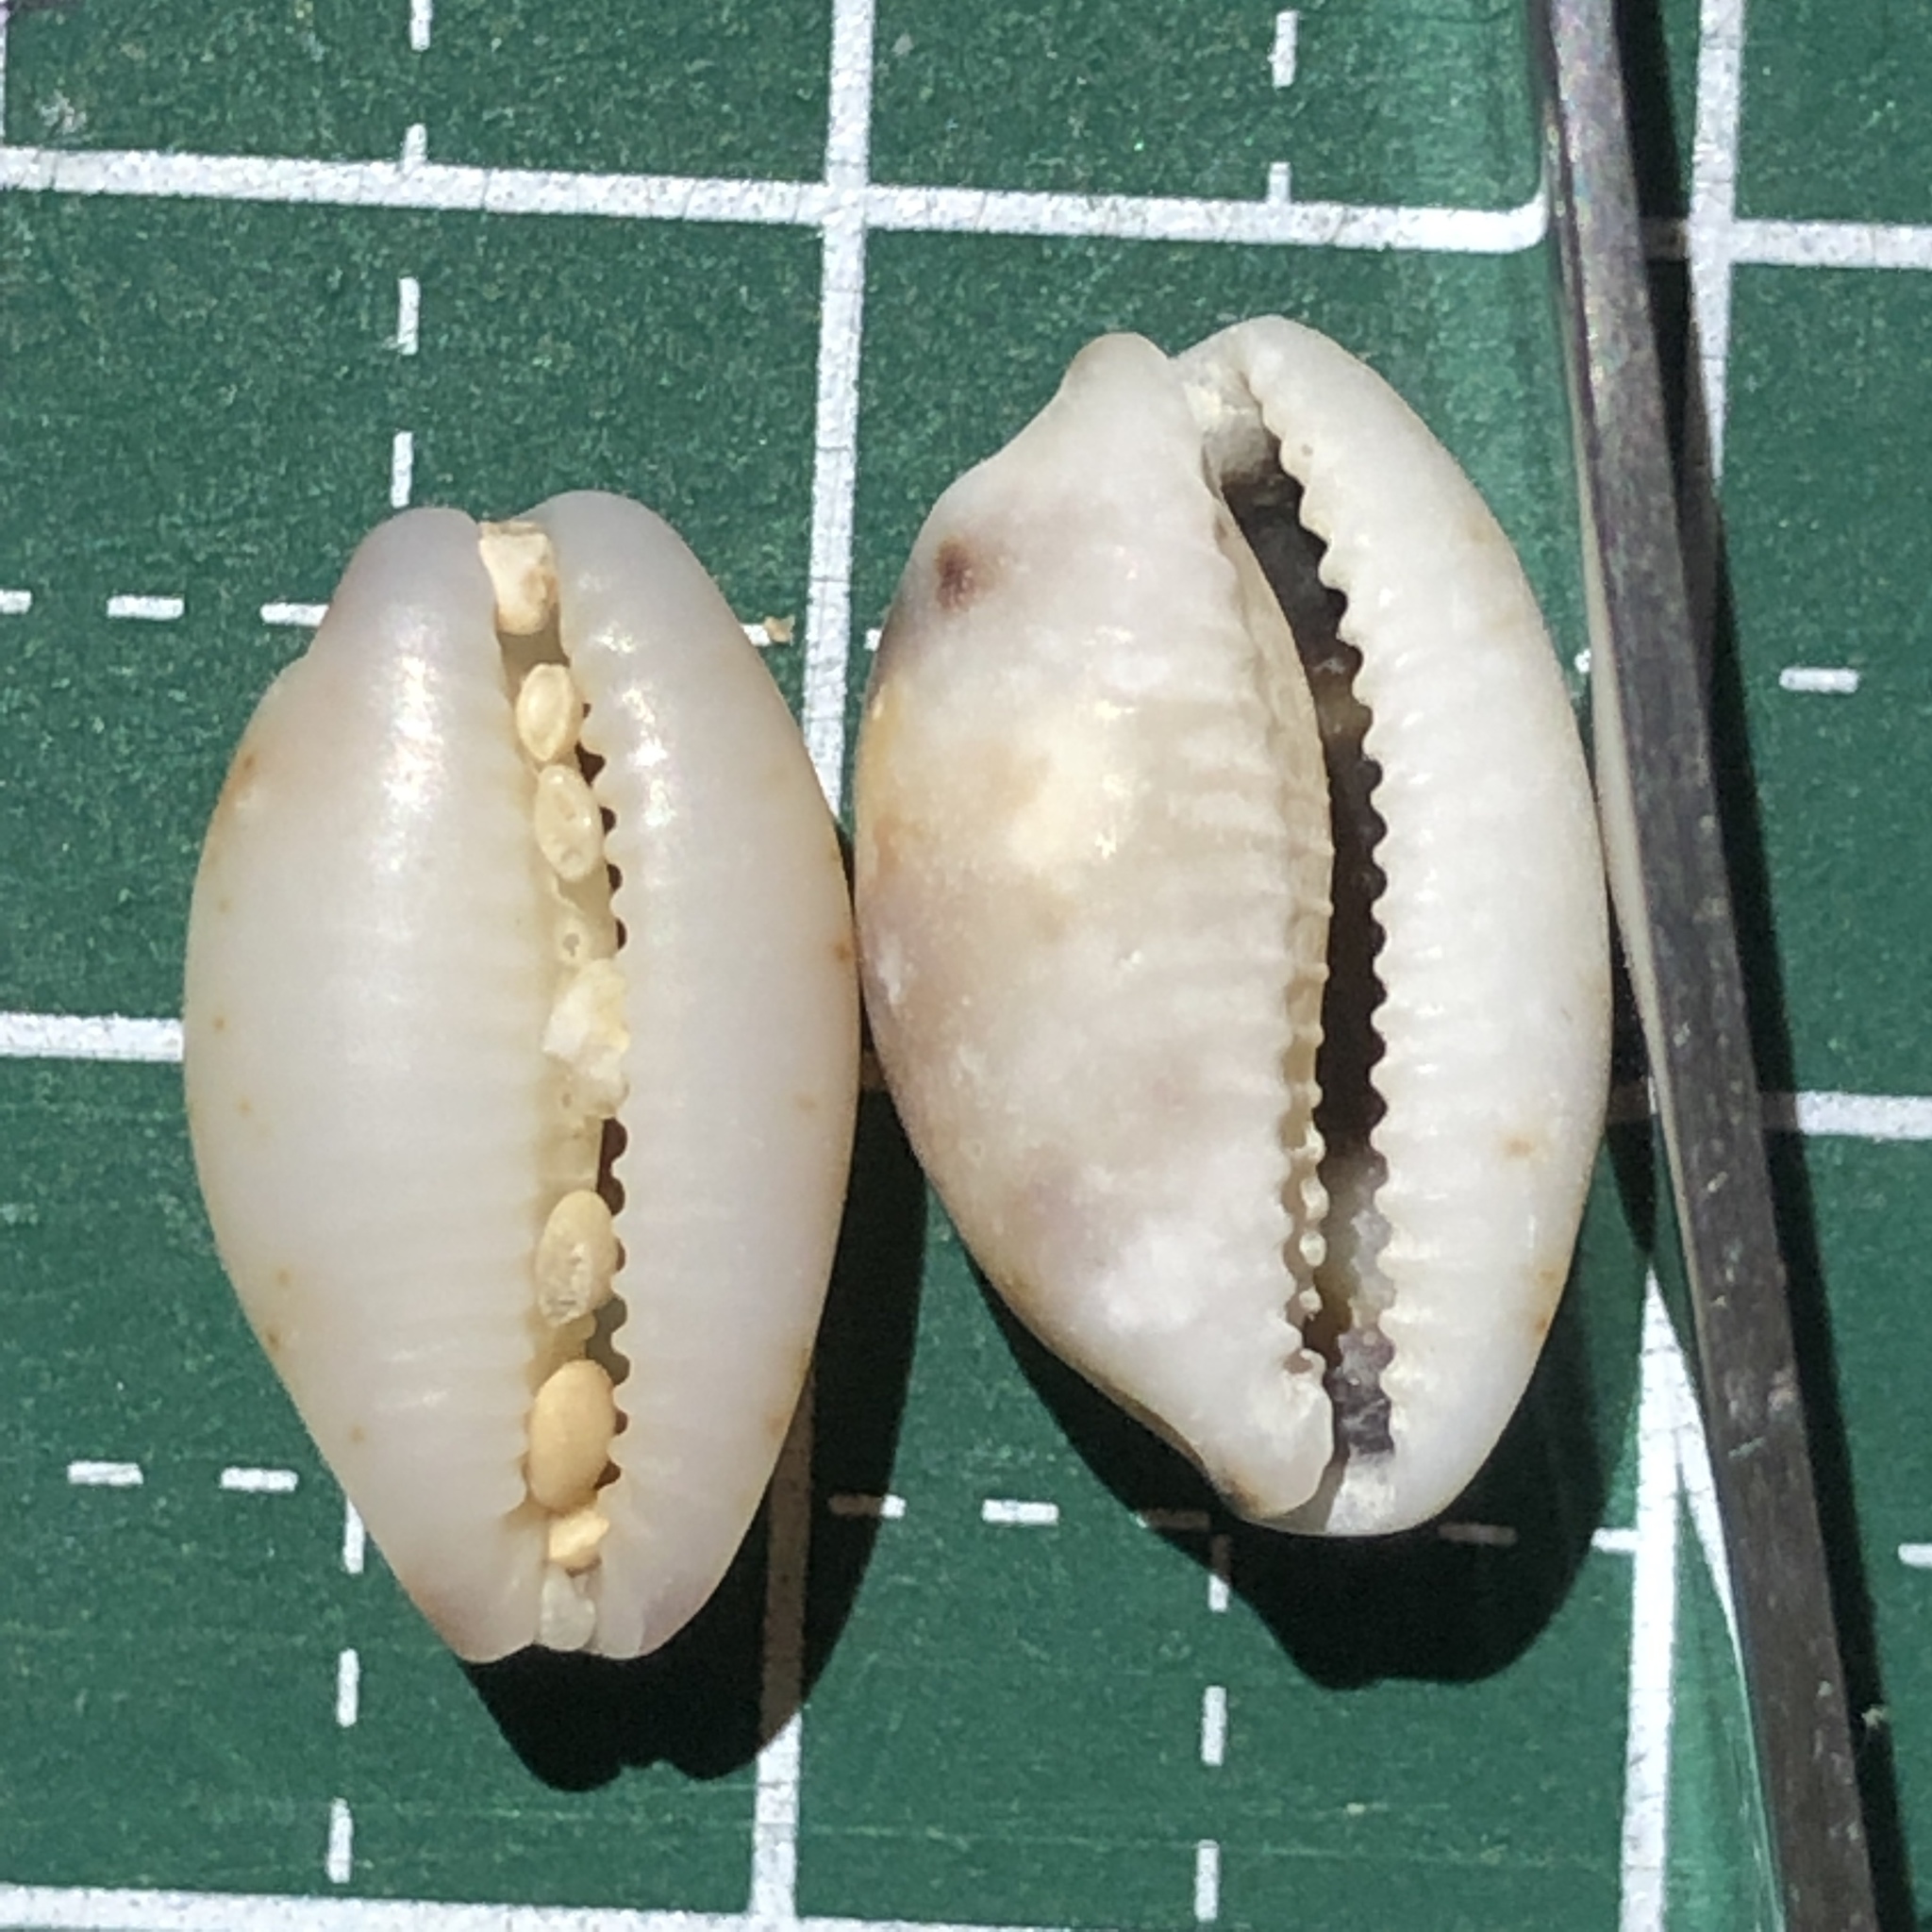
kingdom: Animalia
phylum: Mollusca
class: Gastropoda
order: Littorinimorpha
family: Cypraeidae
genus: Bistolida
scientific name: Bistolida hirundo
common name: Cowrie
